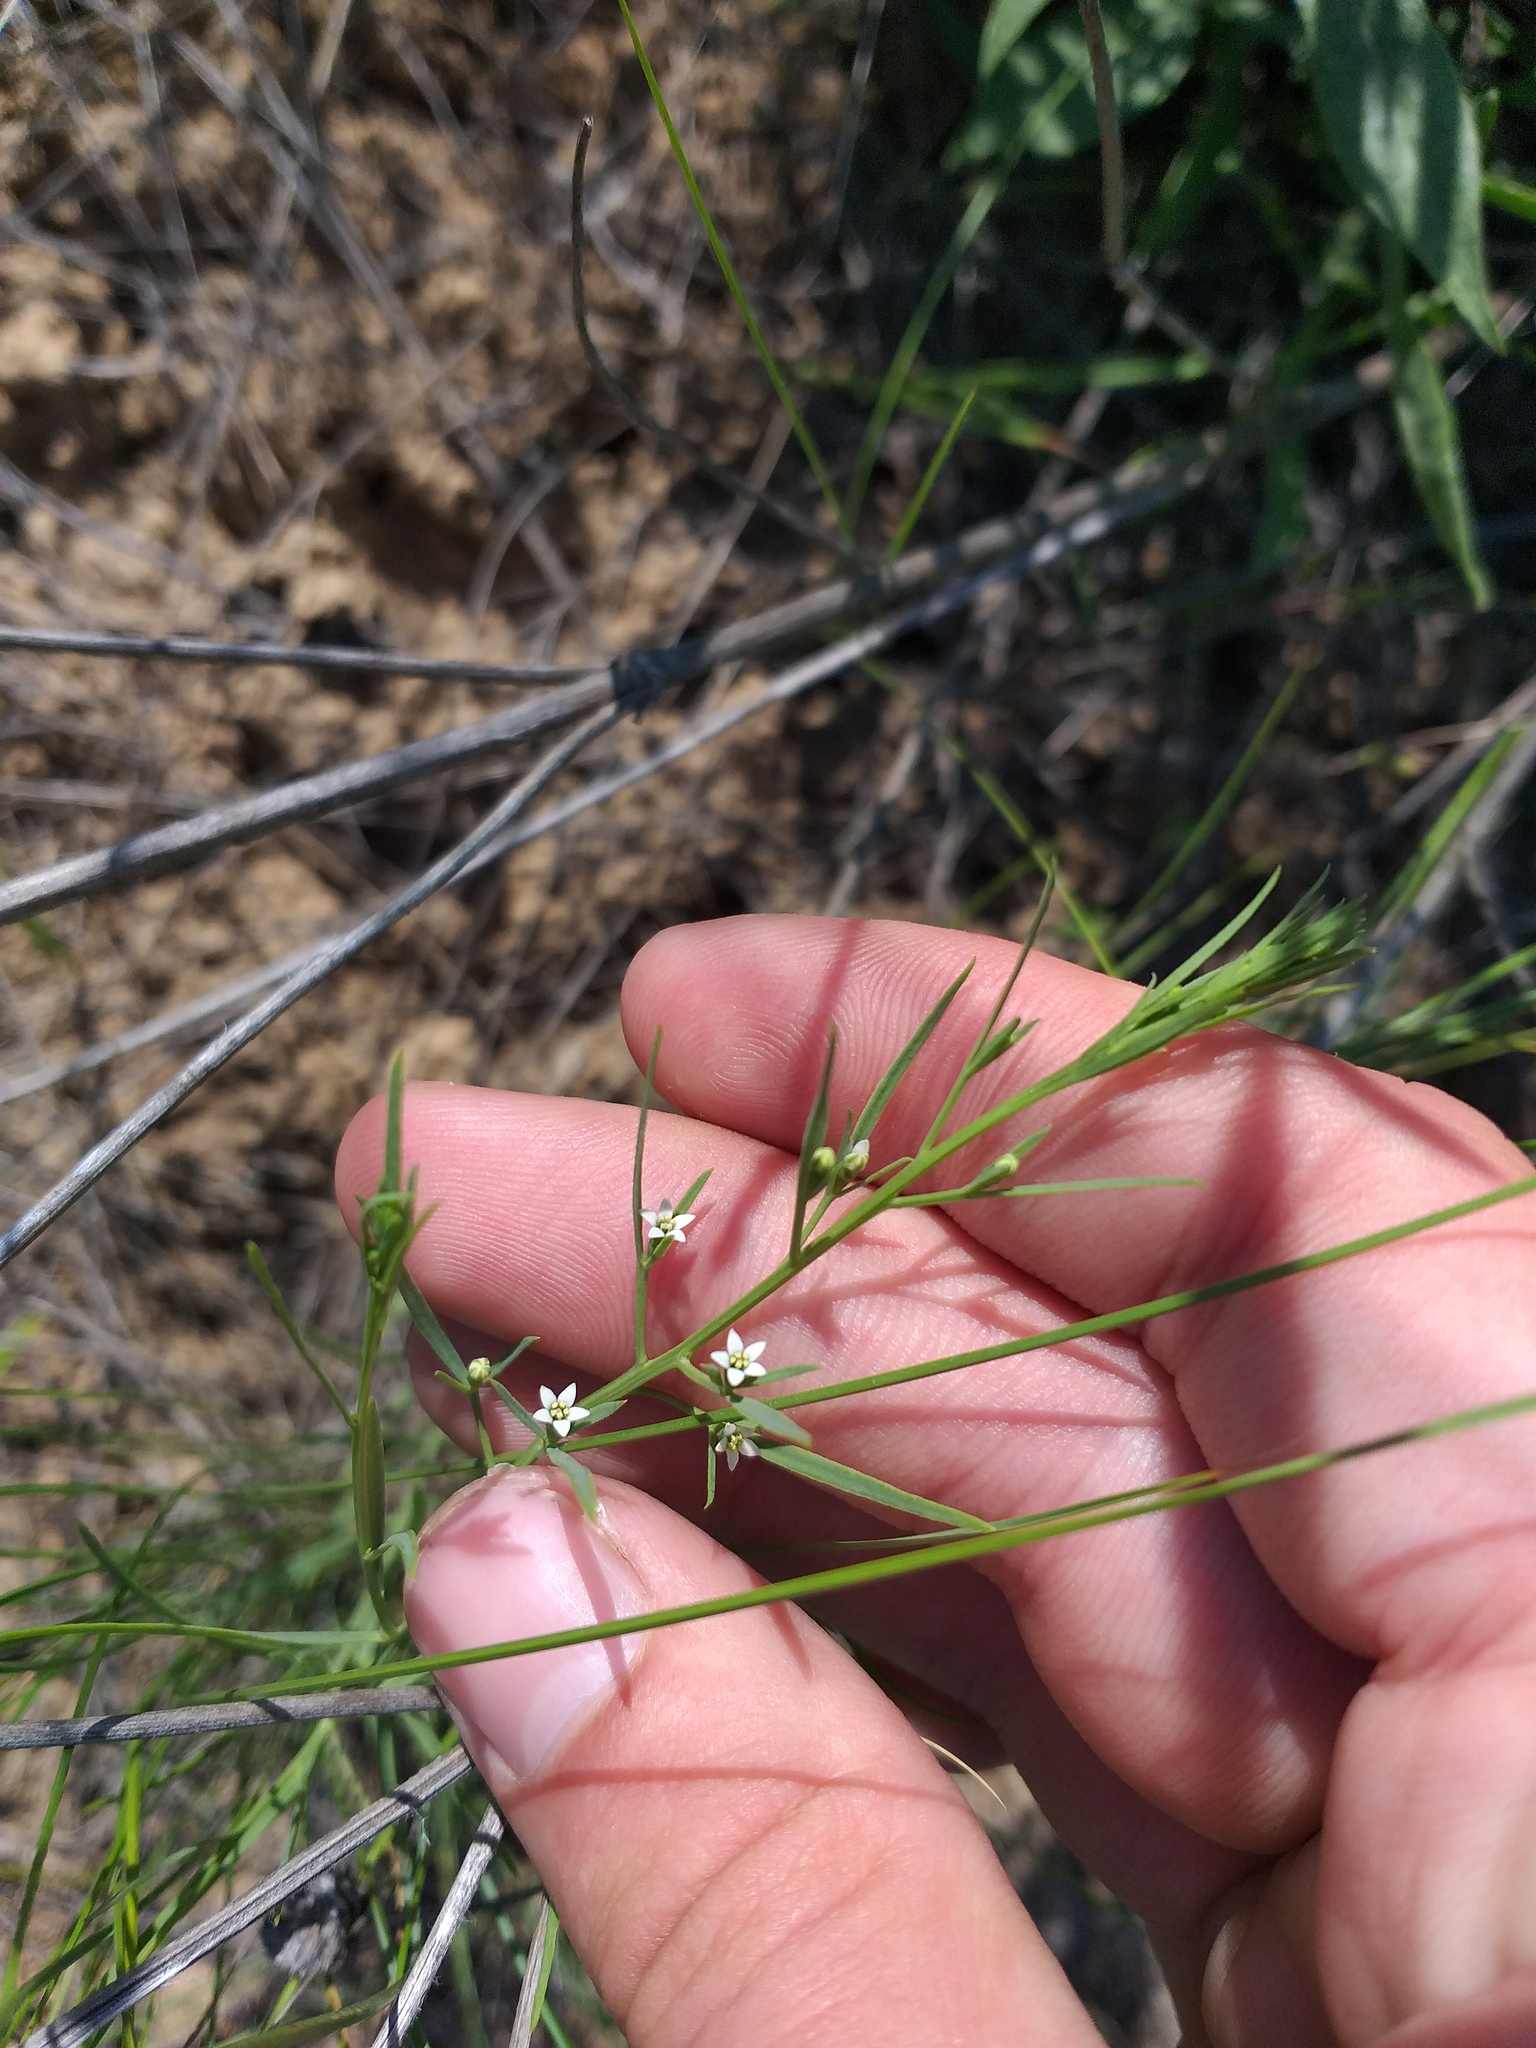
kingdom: Plantae
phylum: Tracheophyta
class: Magnoliopsida
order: Santalales
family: Thesiaceae
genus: Thesium
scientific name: Thesium ramosum
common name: Field thesium
